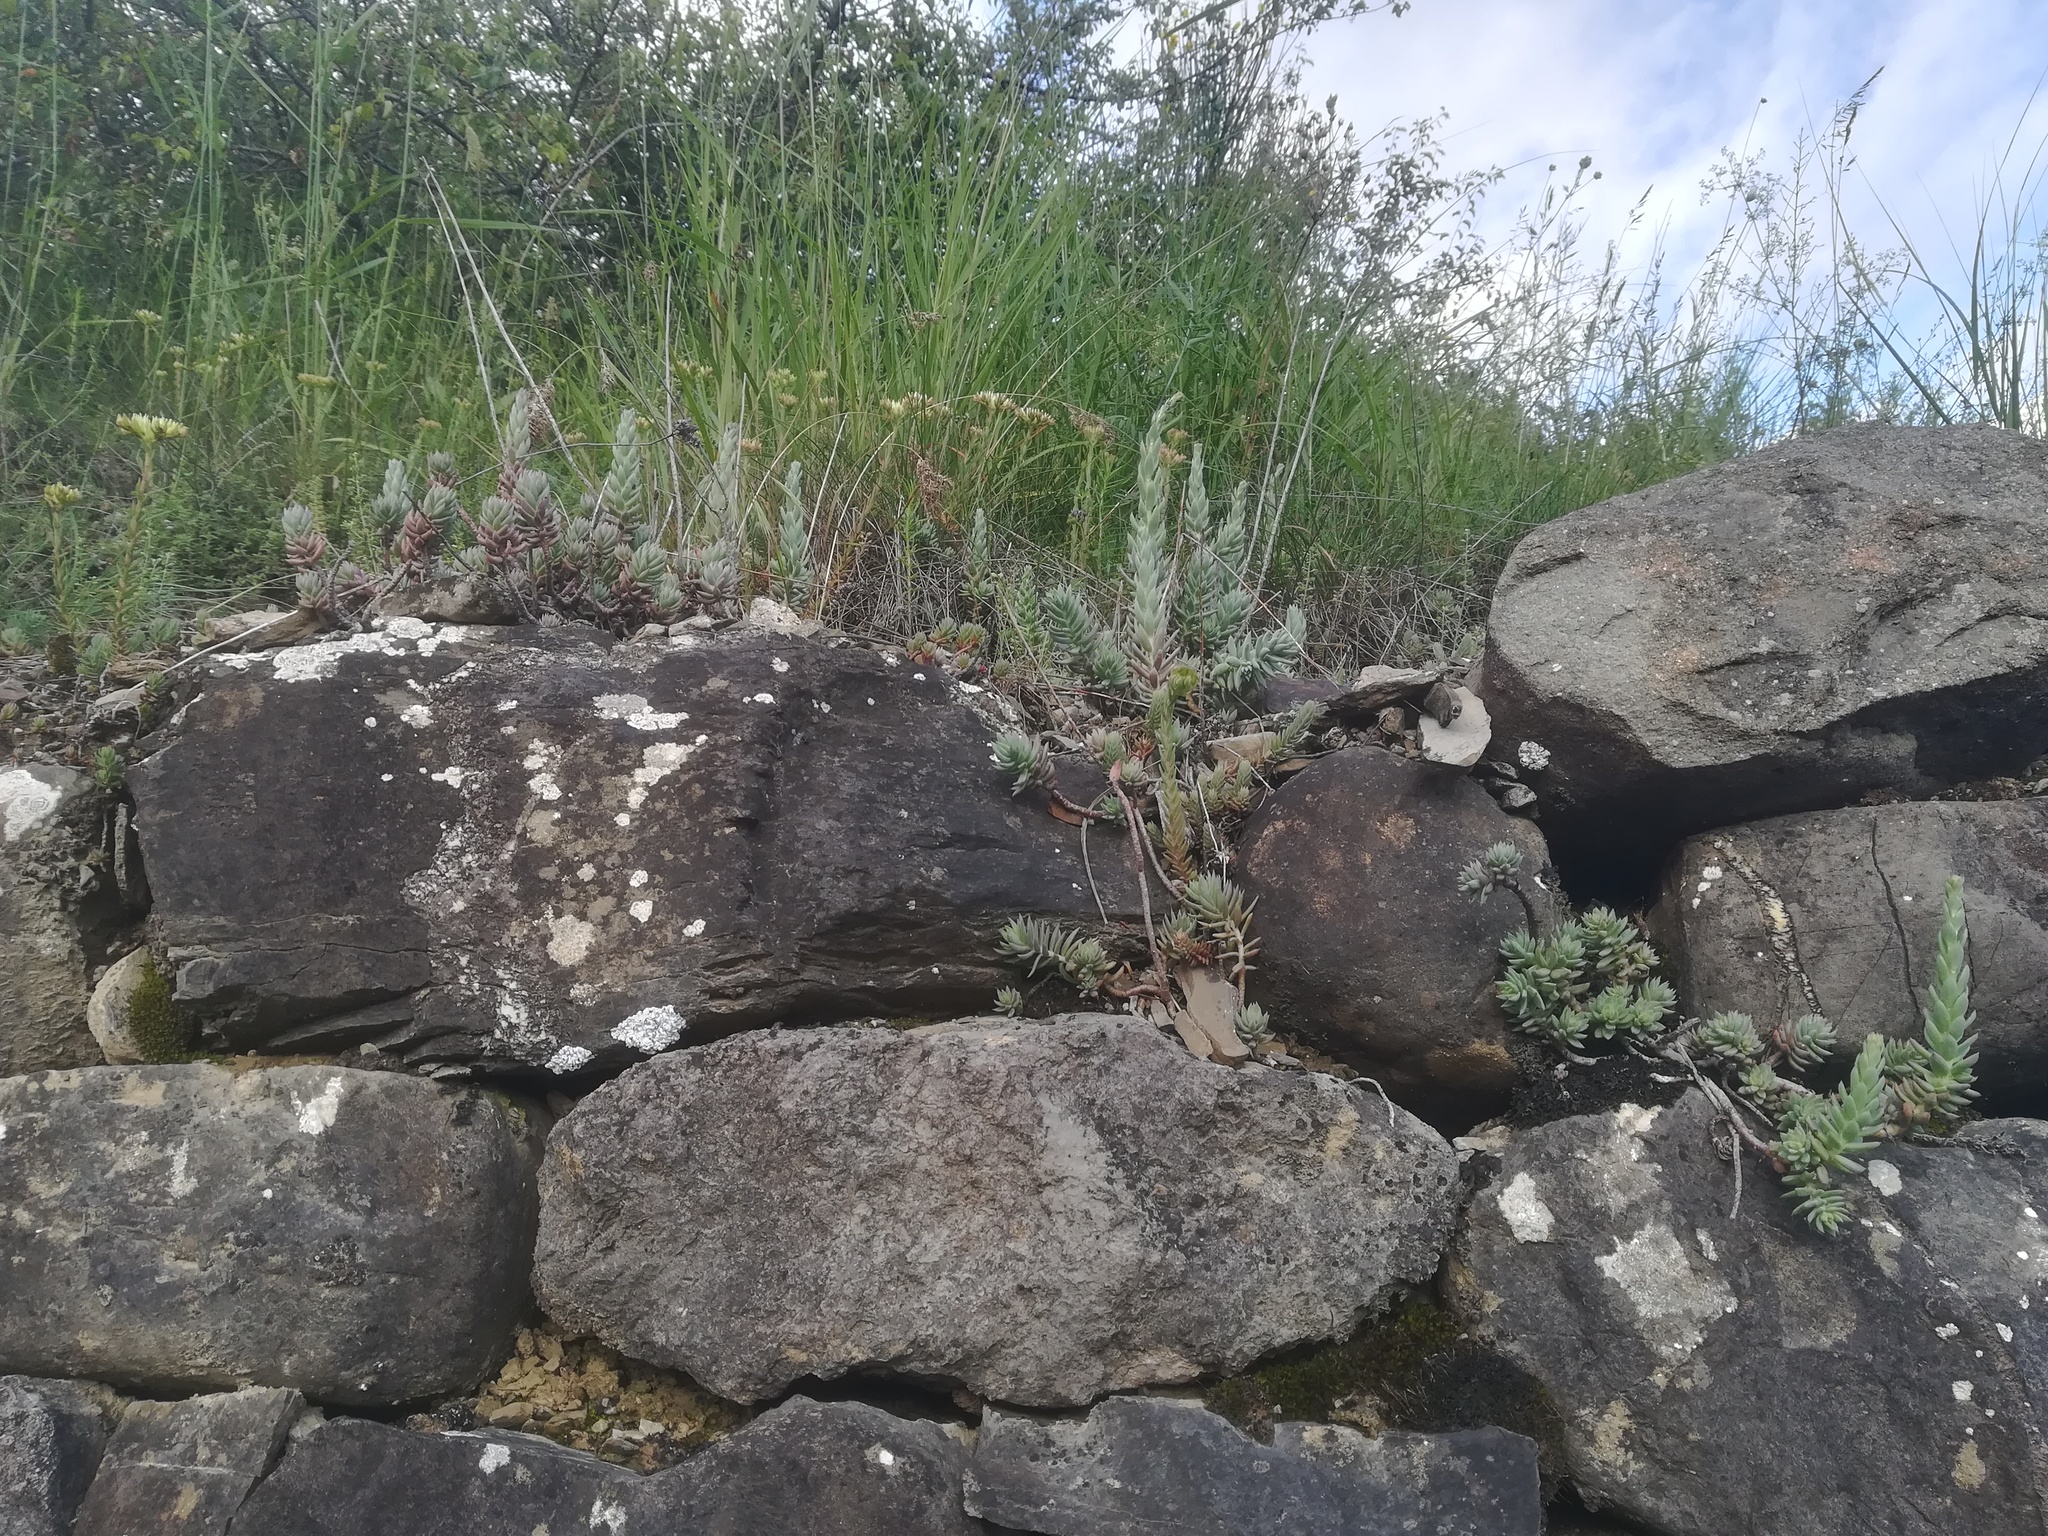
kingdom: Plantae
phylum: Tracheophyta
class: Magnoliopsida
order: Saxifragales
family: Crassulaceae
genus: Petrosedum
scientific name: Petrosedum ochroleucum
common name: European stonecrop
